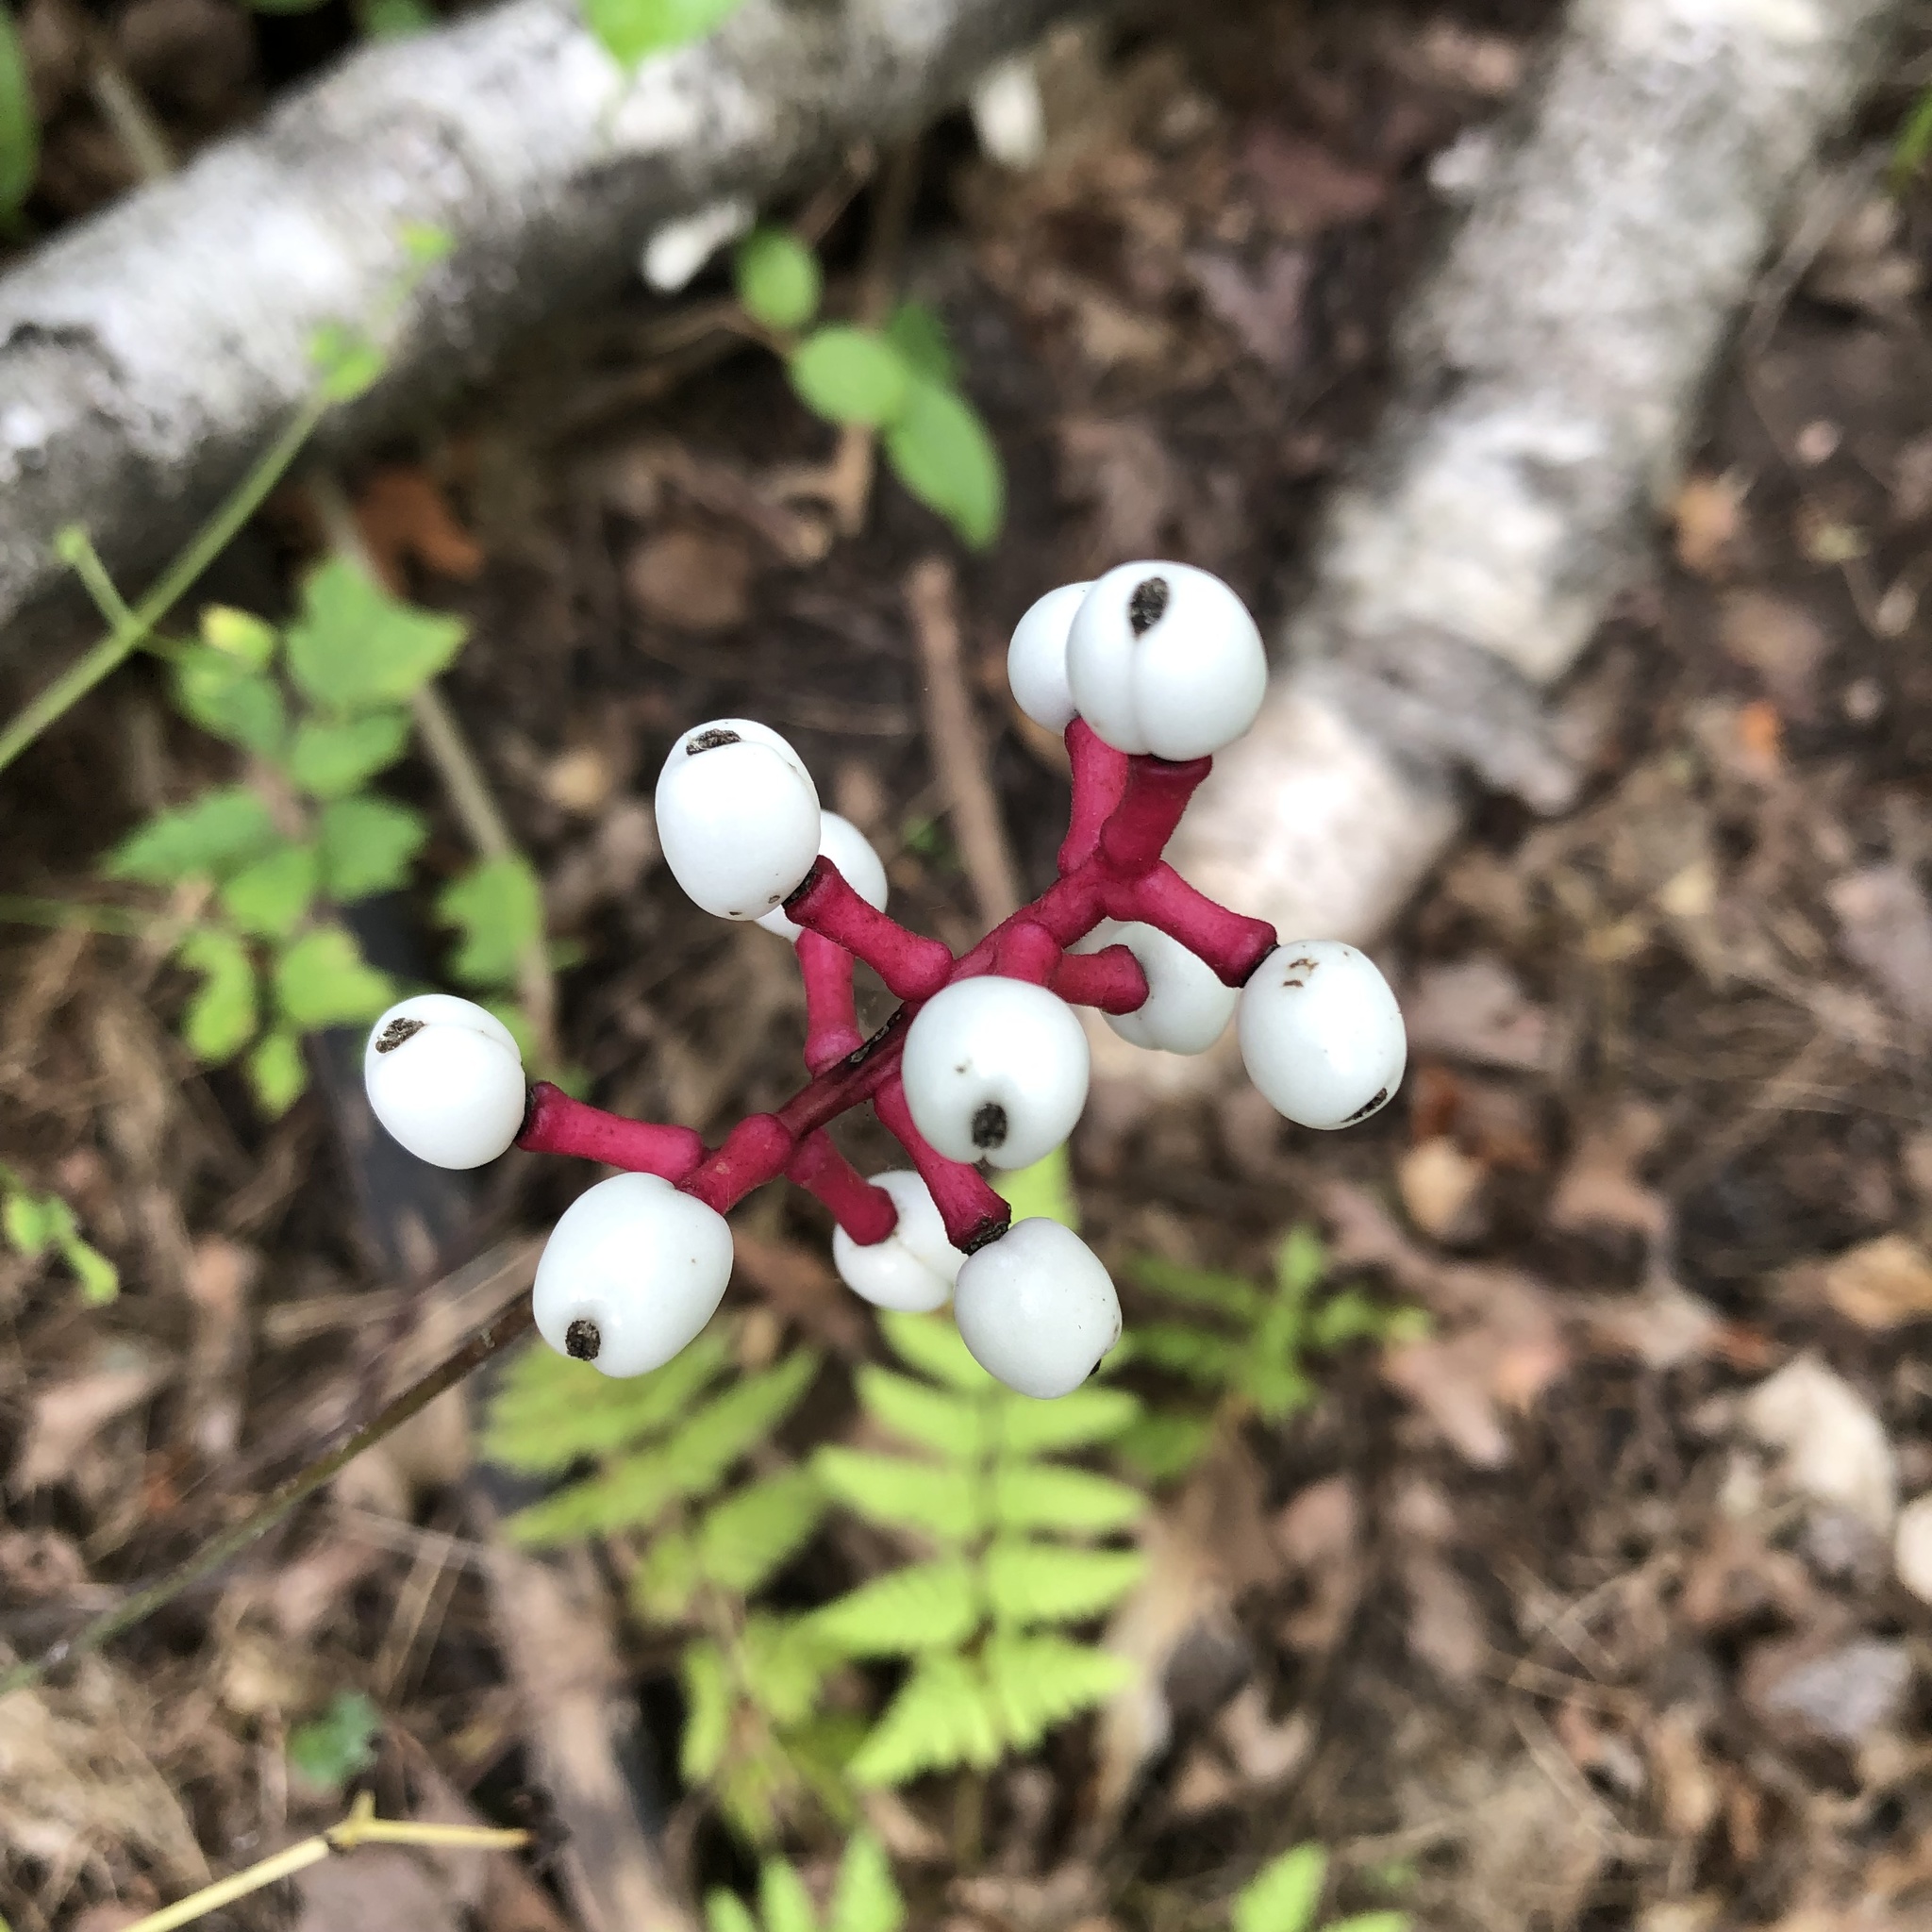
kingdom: Plantae
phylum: Tracheophyta
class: Magnoliopsida
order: Ranunculales
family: Ranunculaceae
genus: Actaea
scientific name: Actaea pachypoda
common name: Doll's-eyes
